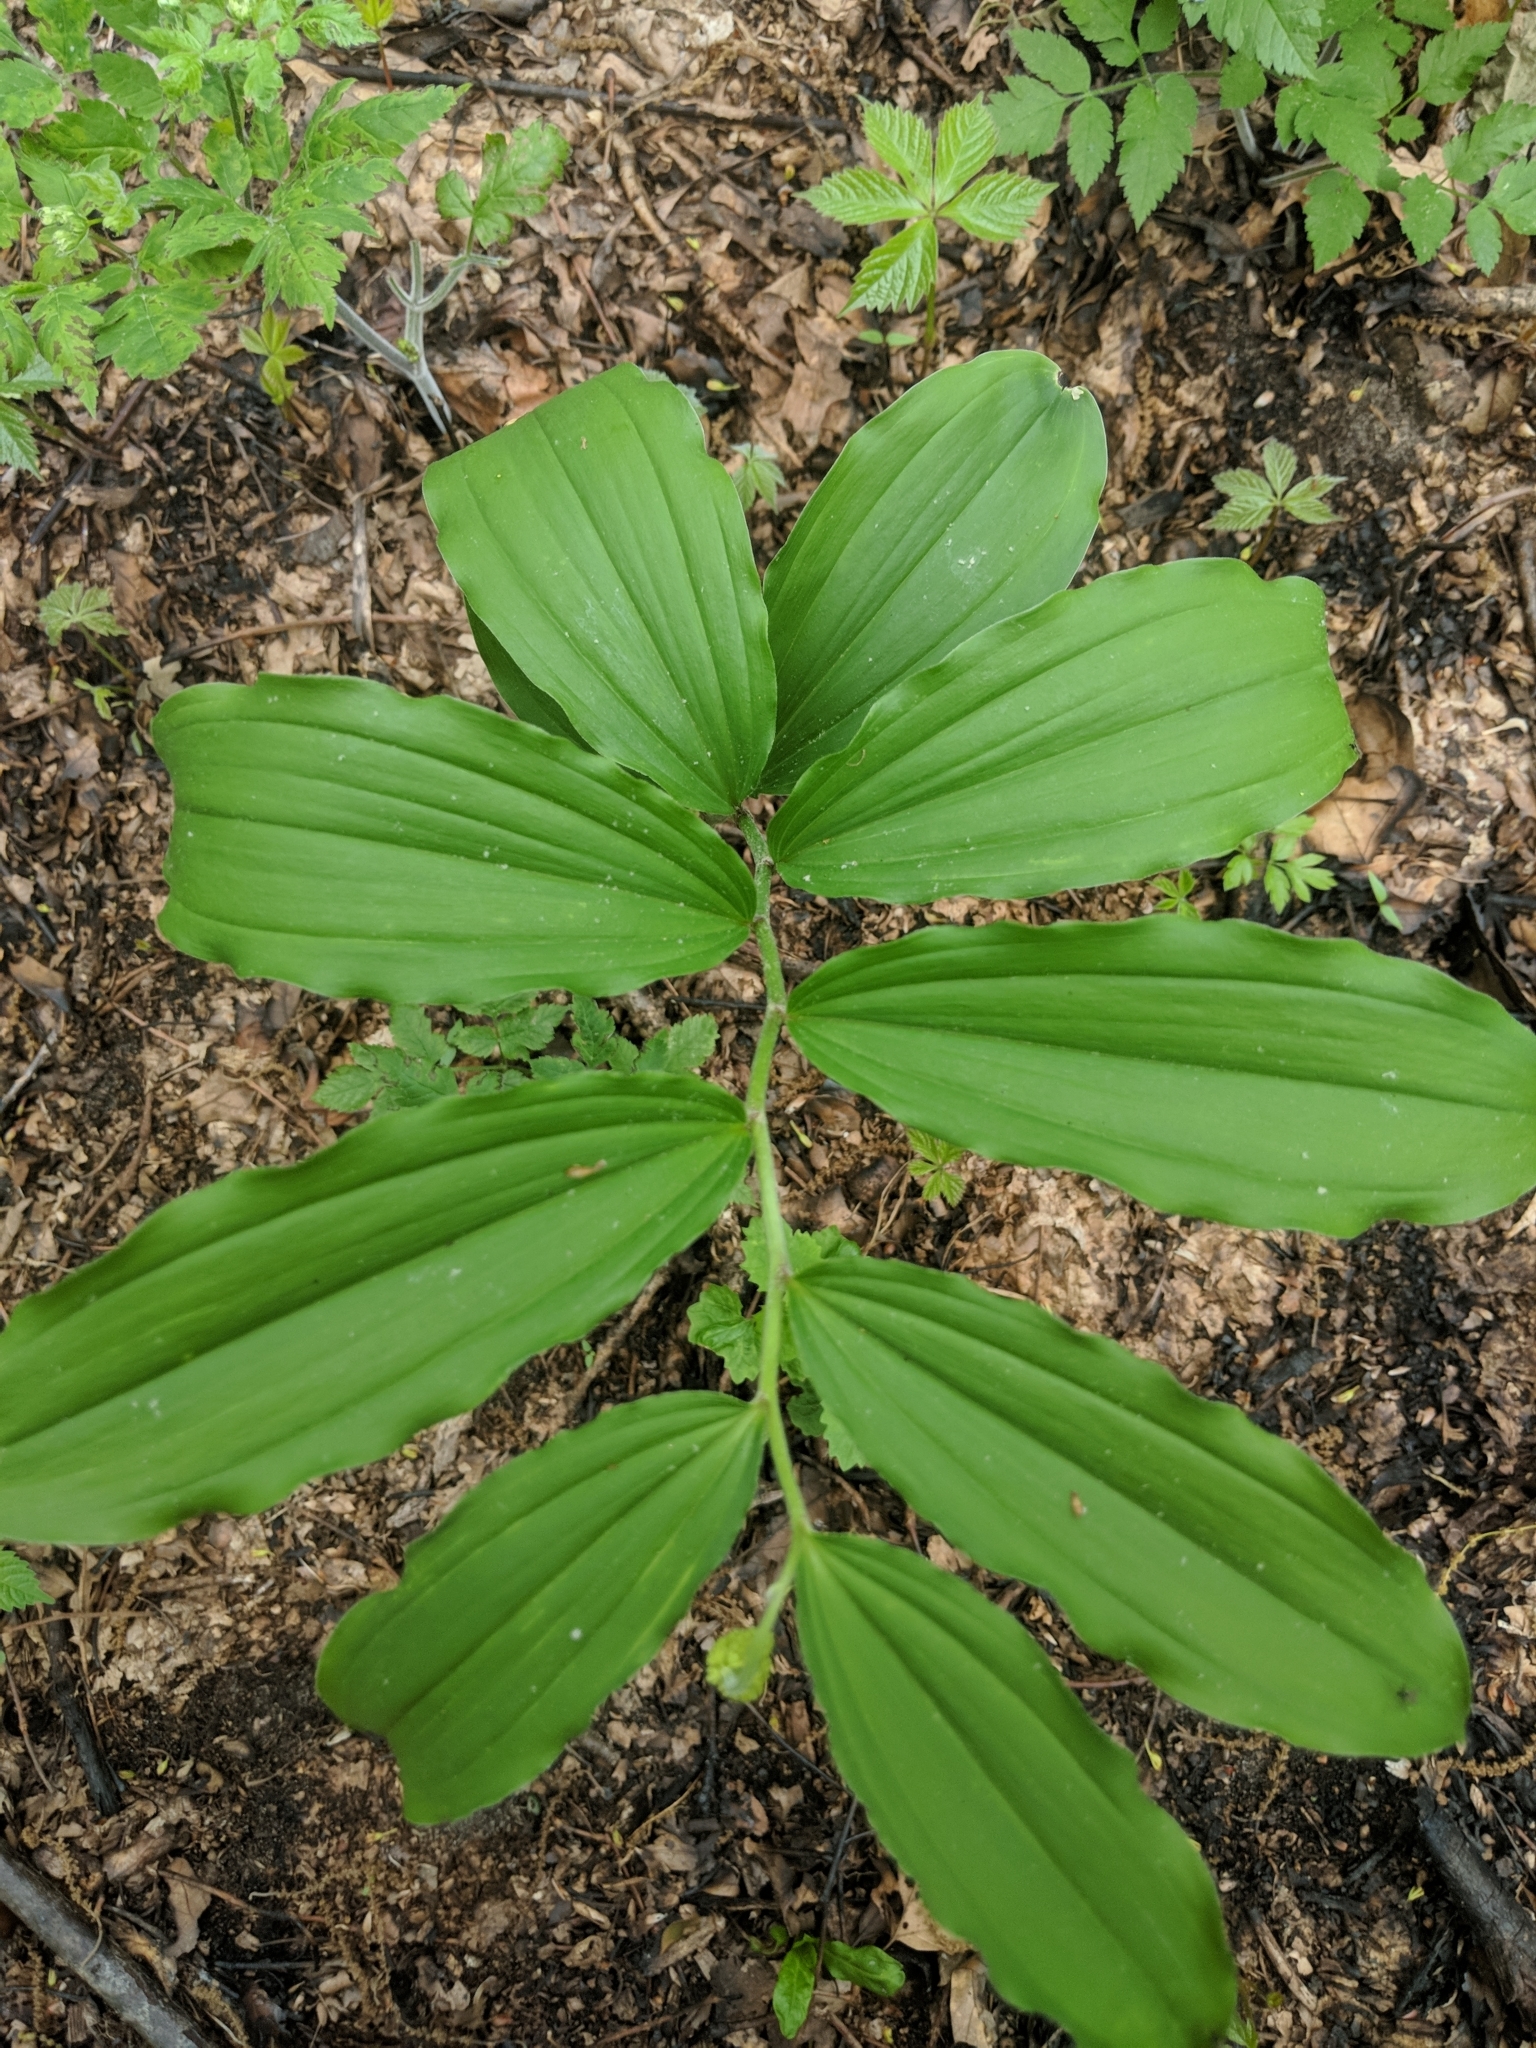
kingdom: Plantae
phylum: Tracheophyta
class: Liliopsida
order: Asparagales
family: Asparagaceae
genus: Maianthemum
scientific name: Maianthemum racemosum
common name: False spikenard
